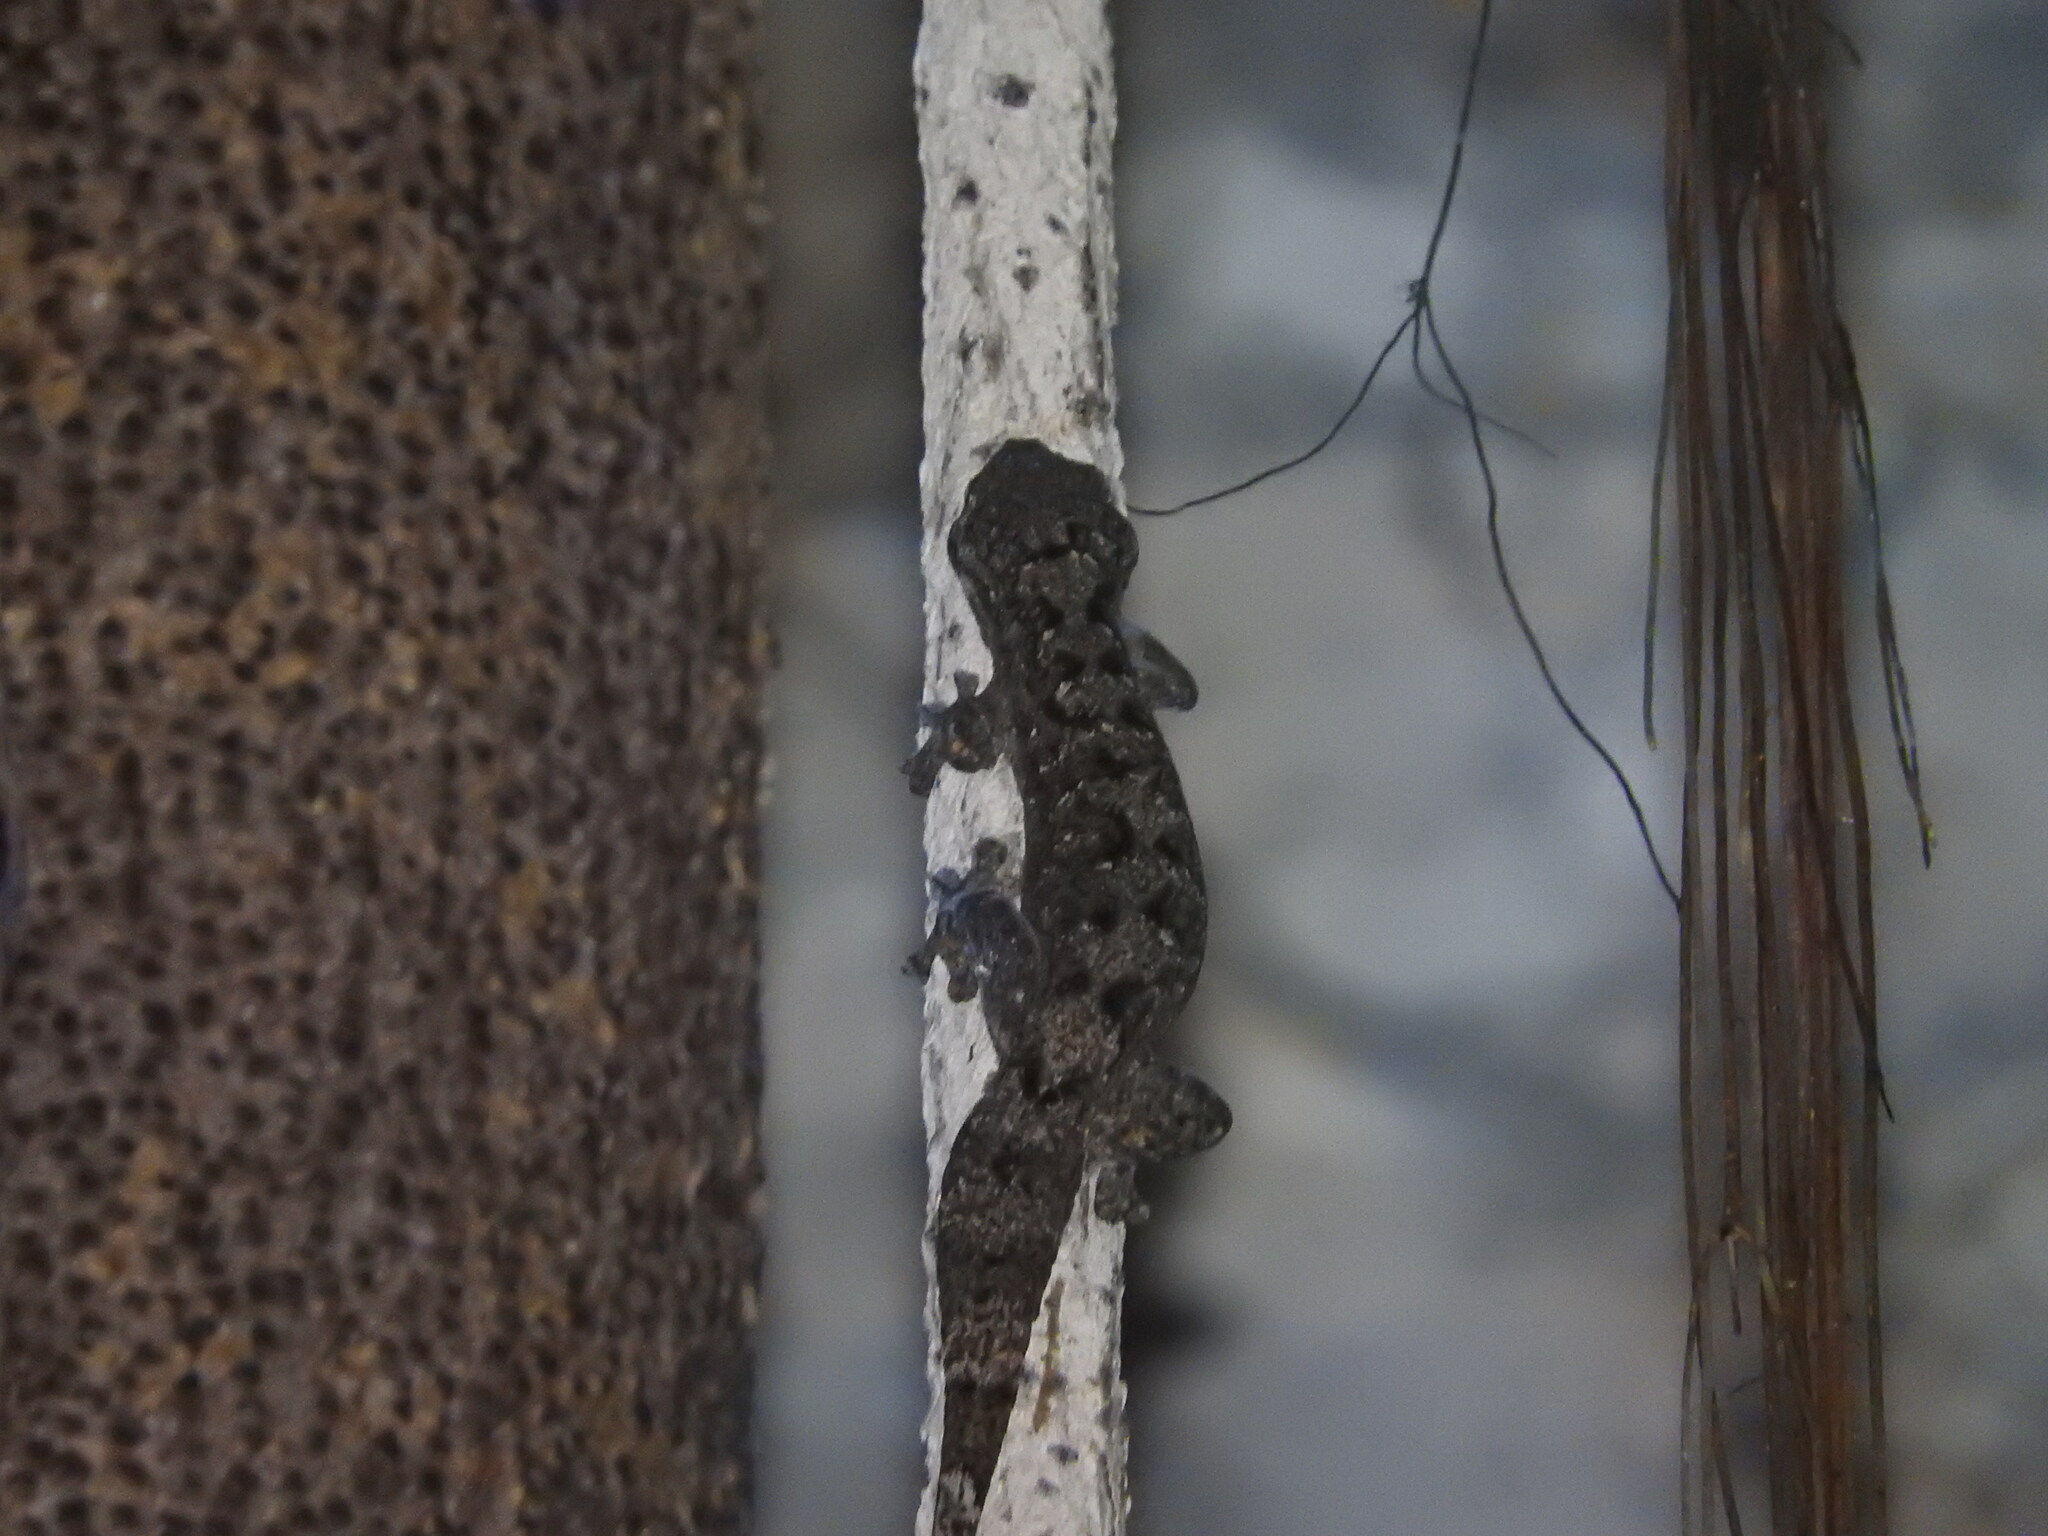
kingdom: Animalia
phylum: Chordata
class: Squamata
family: Phyllodactylidae
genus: Thecadactylus
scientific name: Thecadactylus rapicauda
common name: Turnip-tailed gecko
